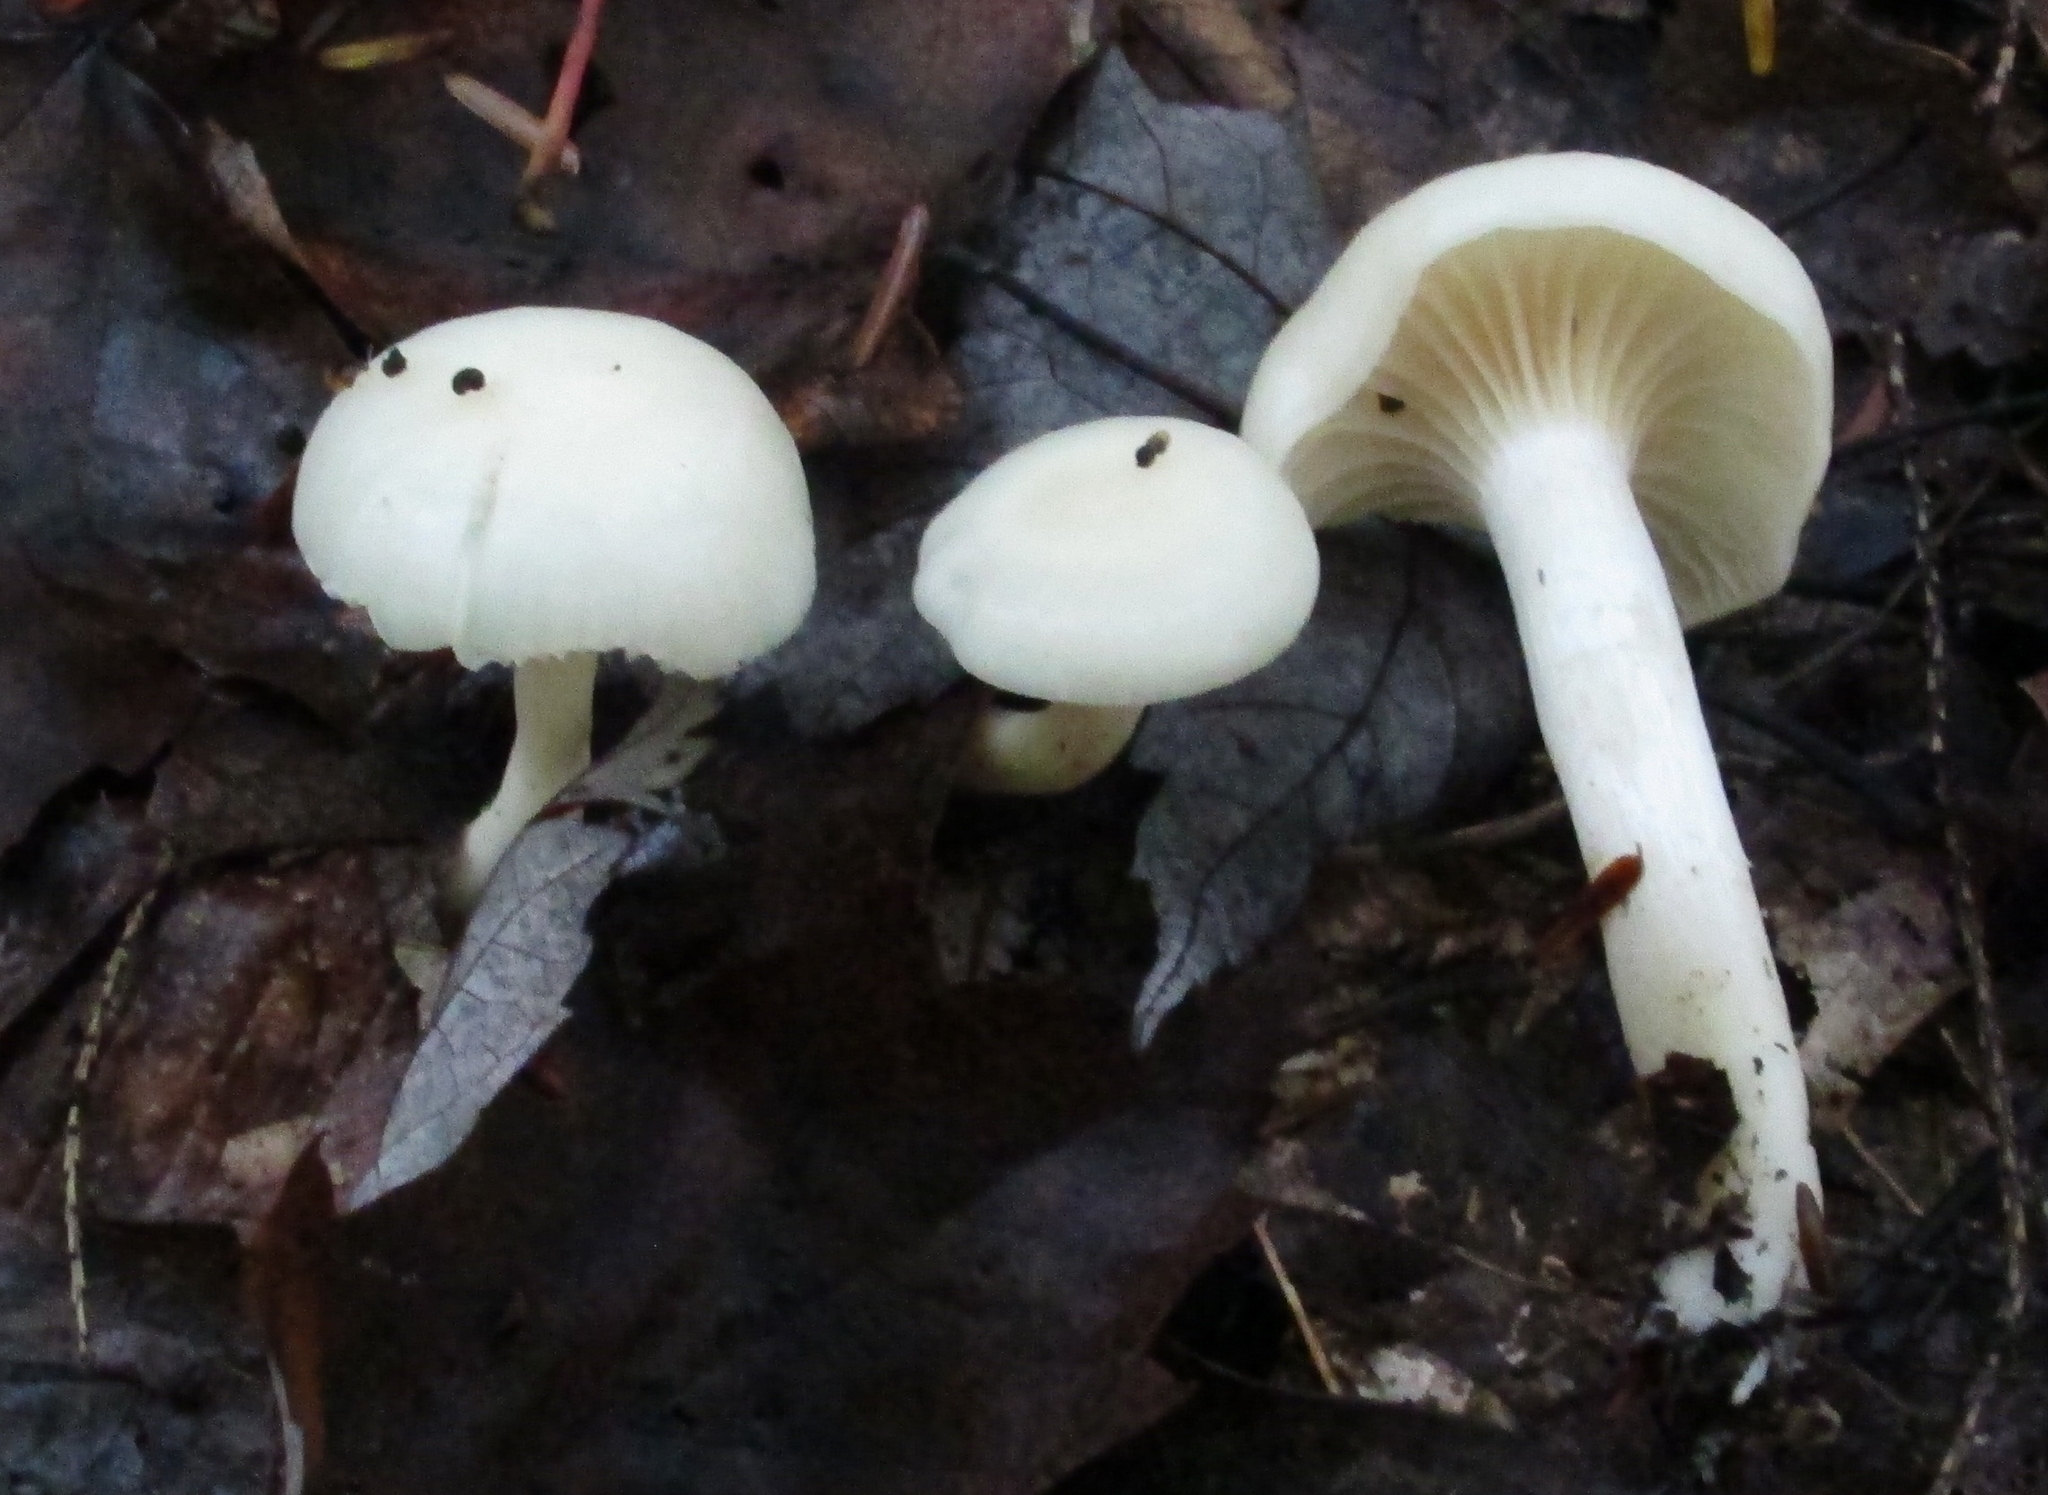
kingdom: Fungi
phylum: Basidiomycota
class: Agaricomycetes
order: Agaricales
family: Hygrophoraceae
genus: Cuphophyllus
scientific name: Cuphophyllus virgineus
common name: Snowy waxcap
